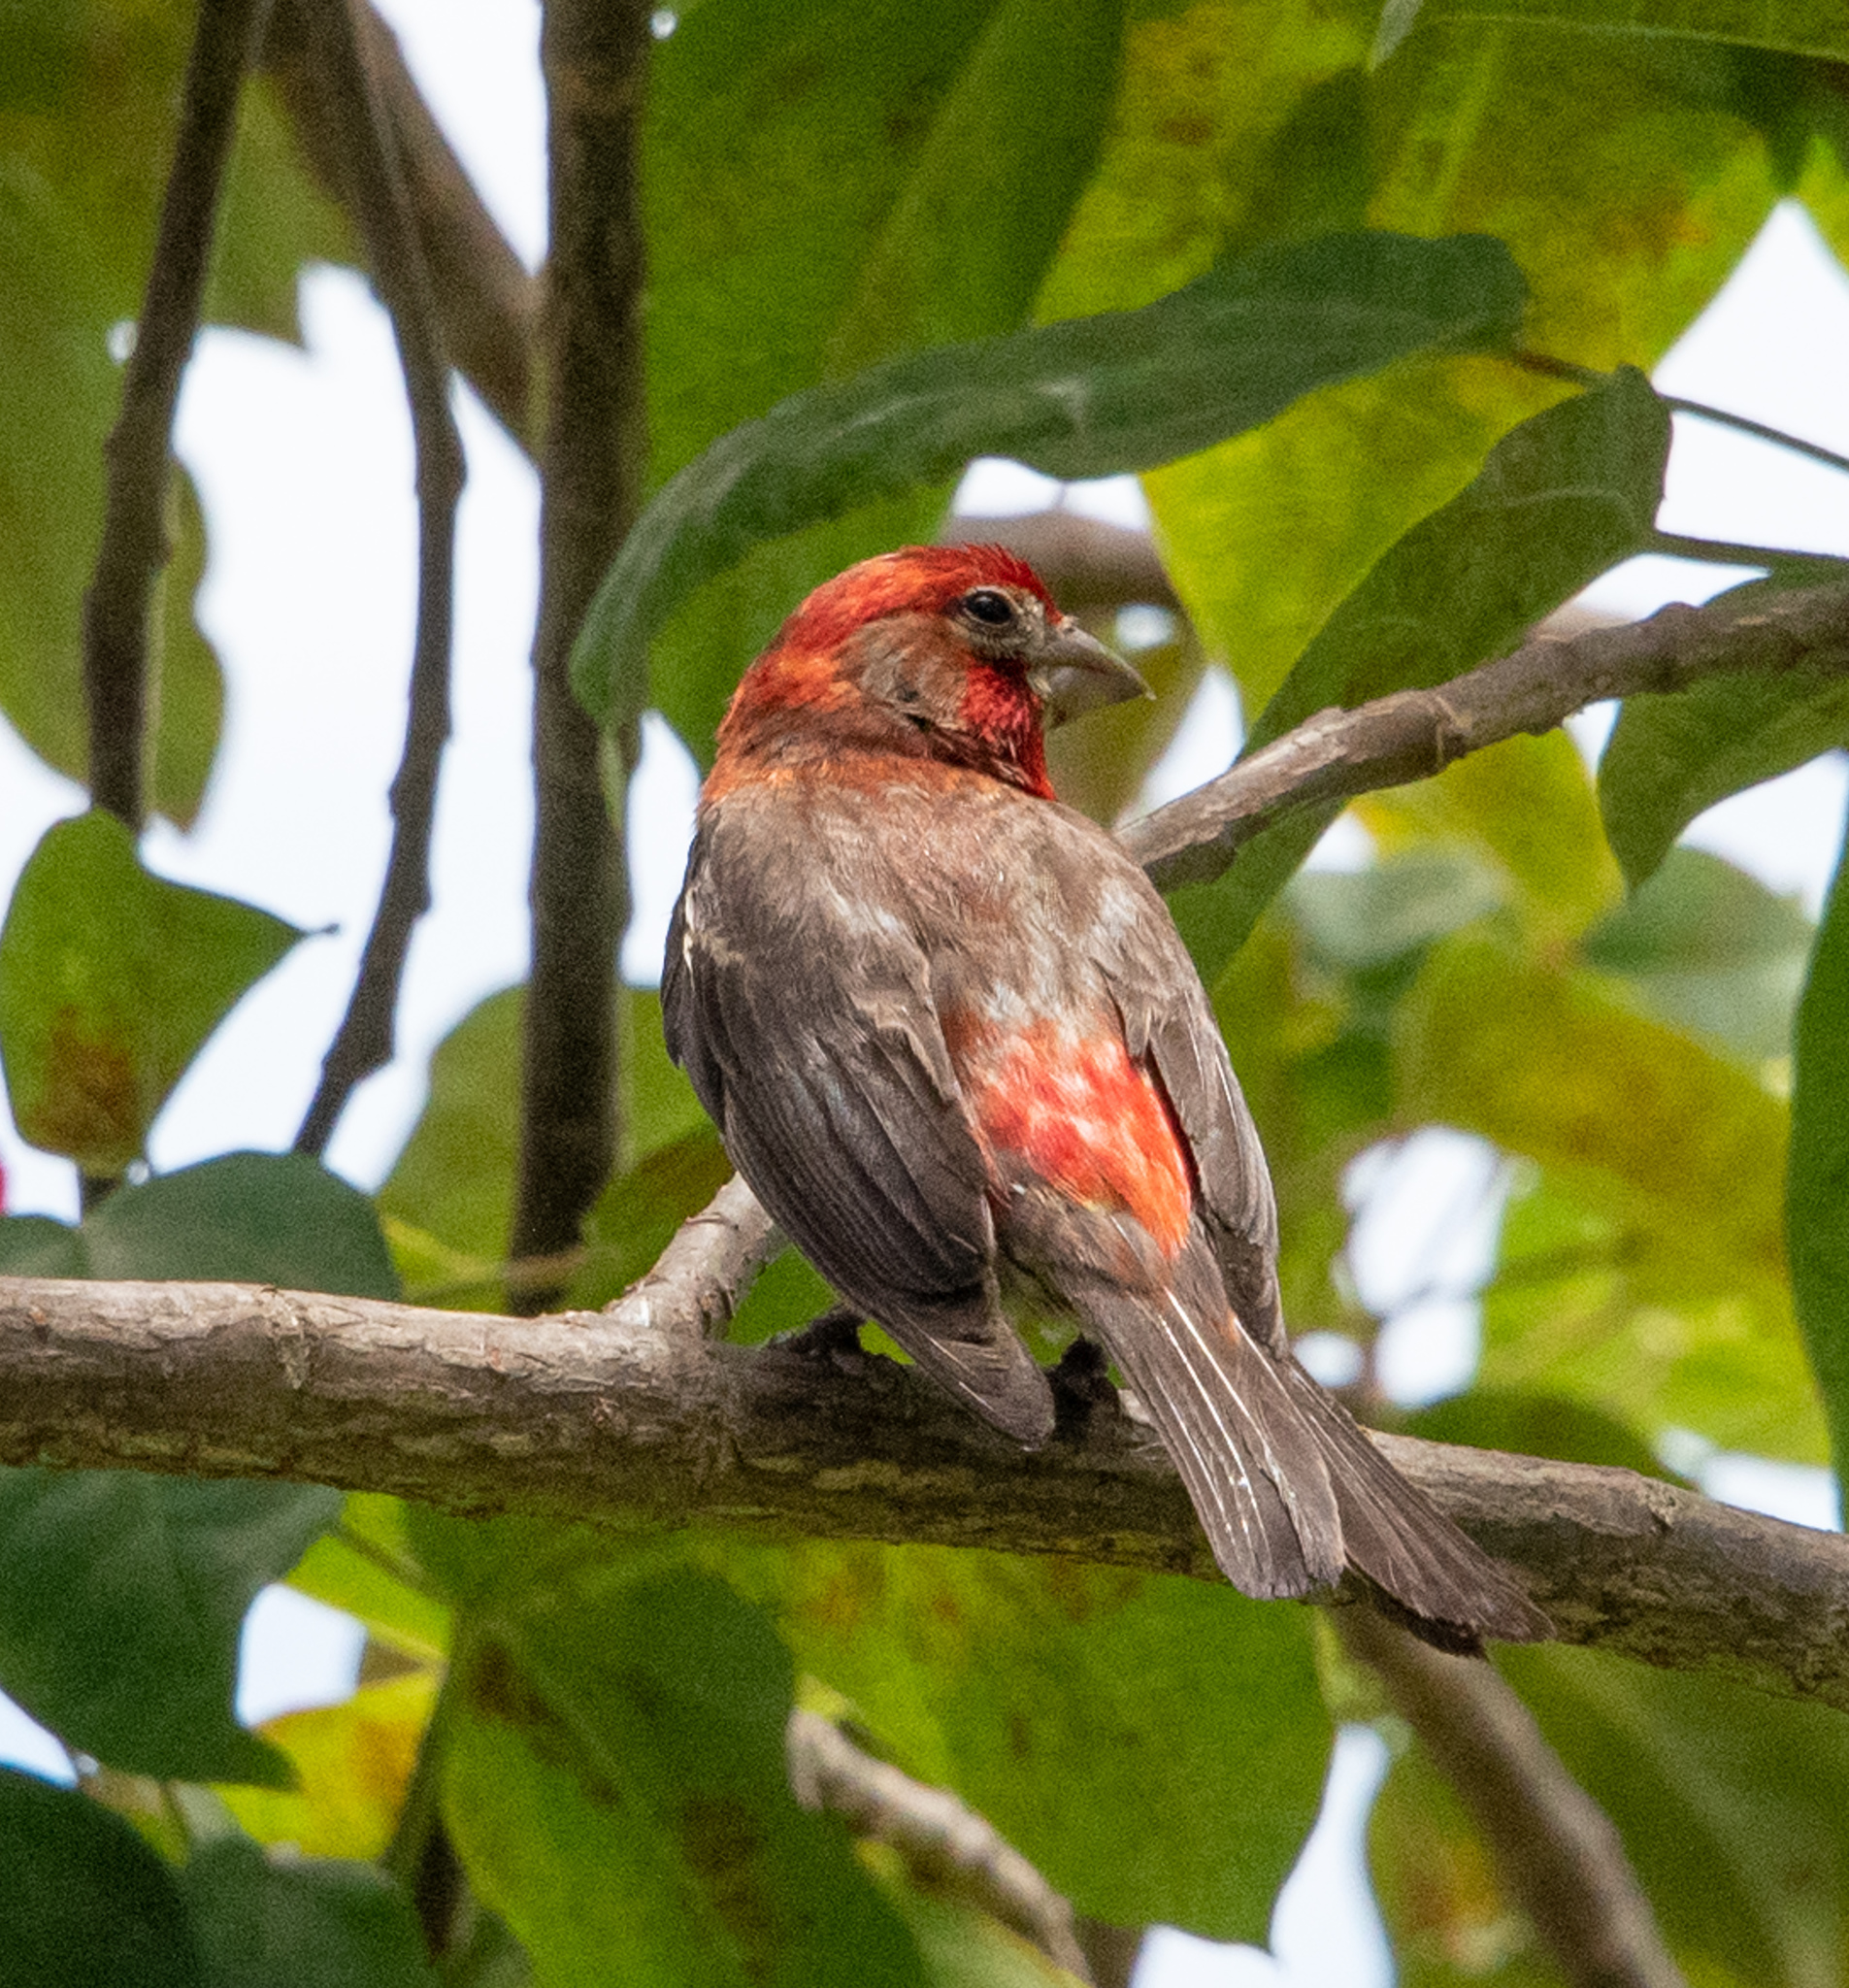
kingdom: Animalia
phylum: Chordata
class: Aves
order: Passeriformes
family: Fringillidae
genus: Haemorhous
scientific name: Haemorhous mexicanus
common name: House finch
